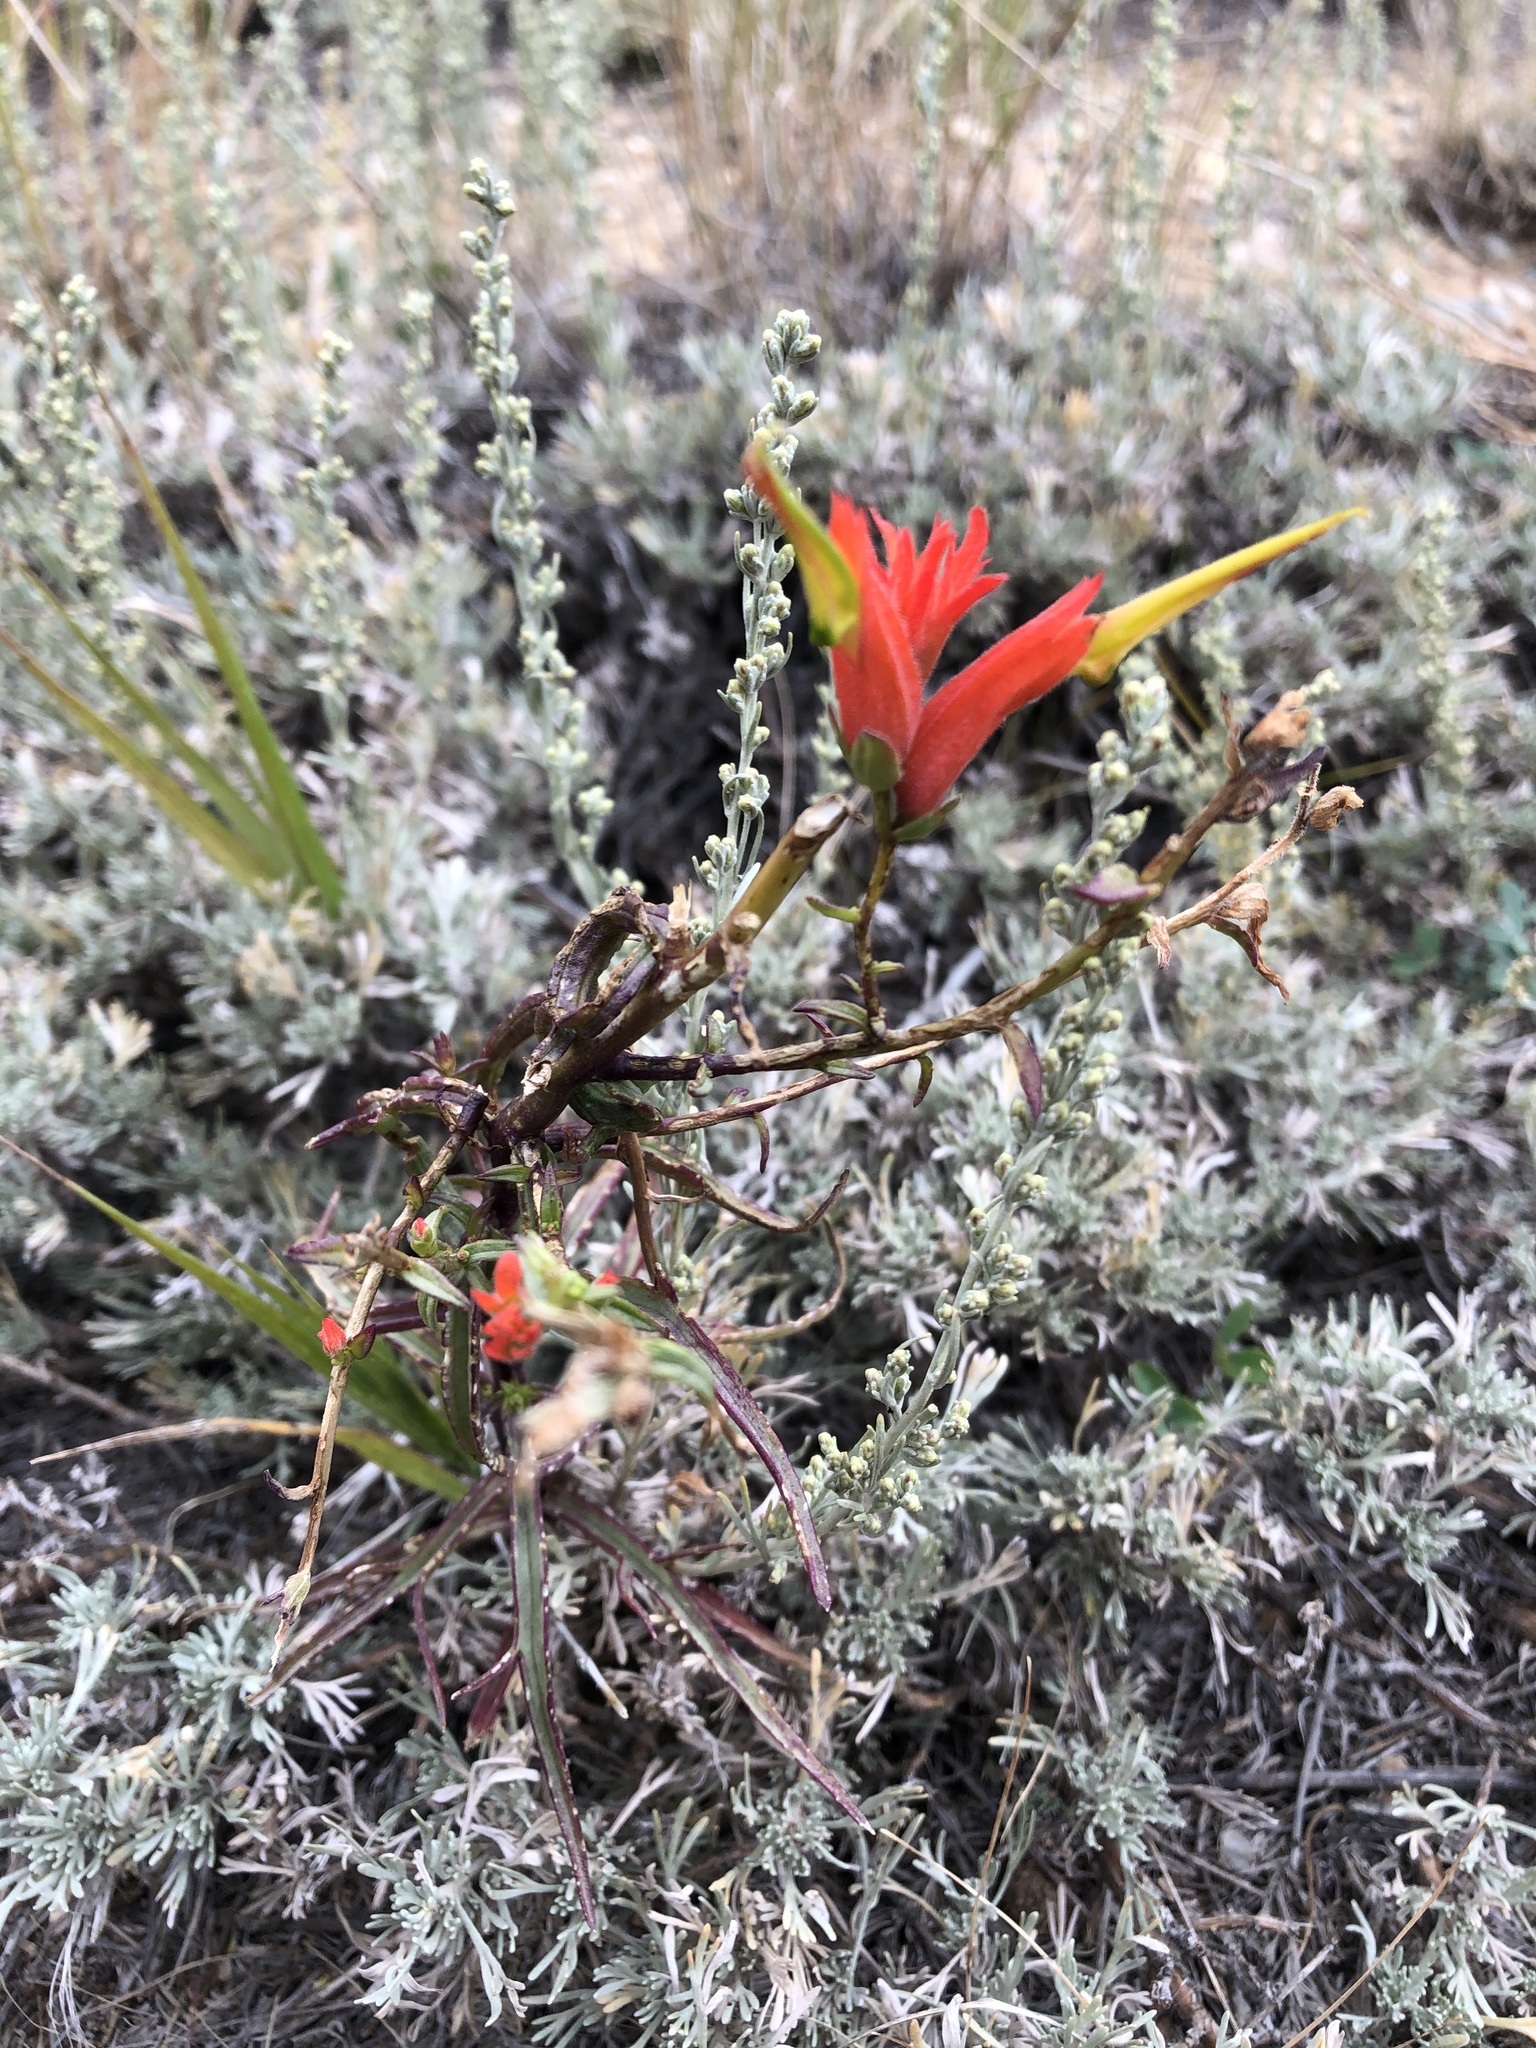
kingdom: Plantae
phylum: Tracheophyta
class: Magnoliopsida
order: Lamiales
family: Orobanchaceae
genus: Castilleja
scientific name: Castilleja linariifolia
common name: Wyoming paintbrush
